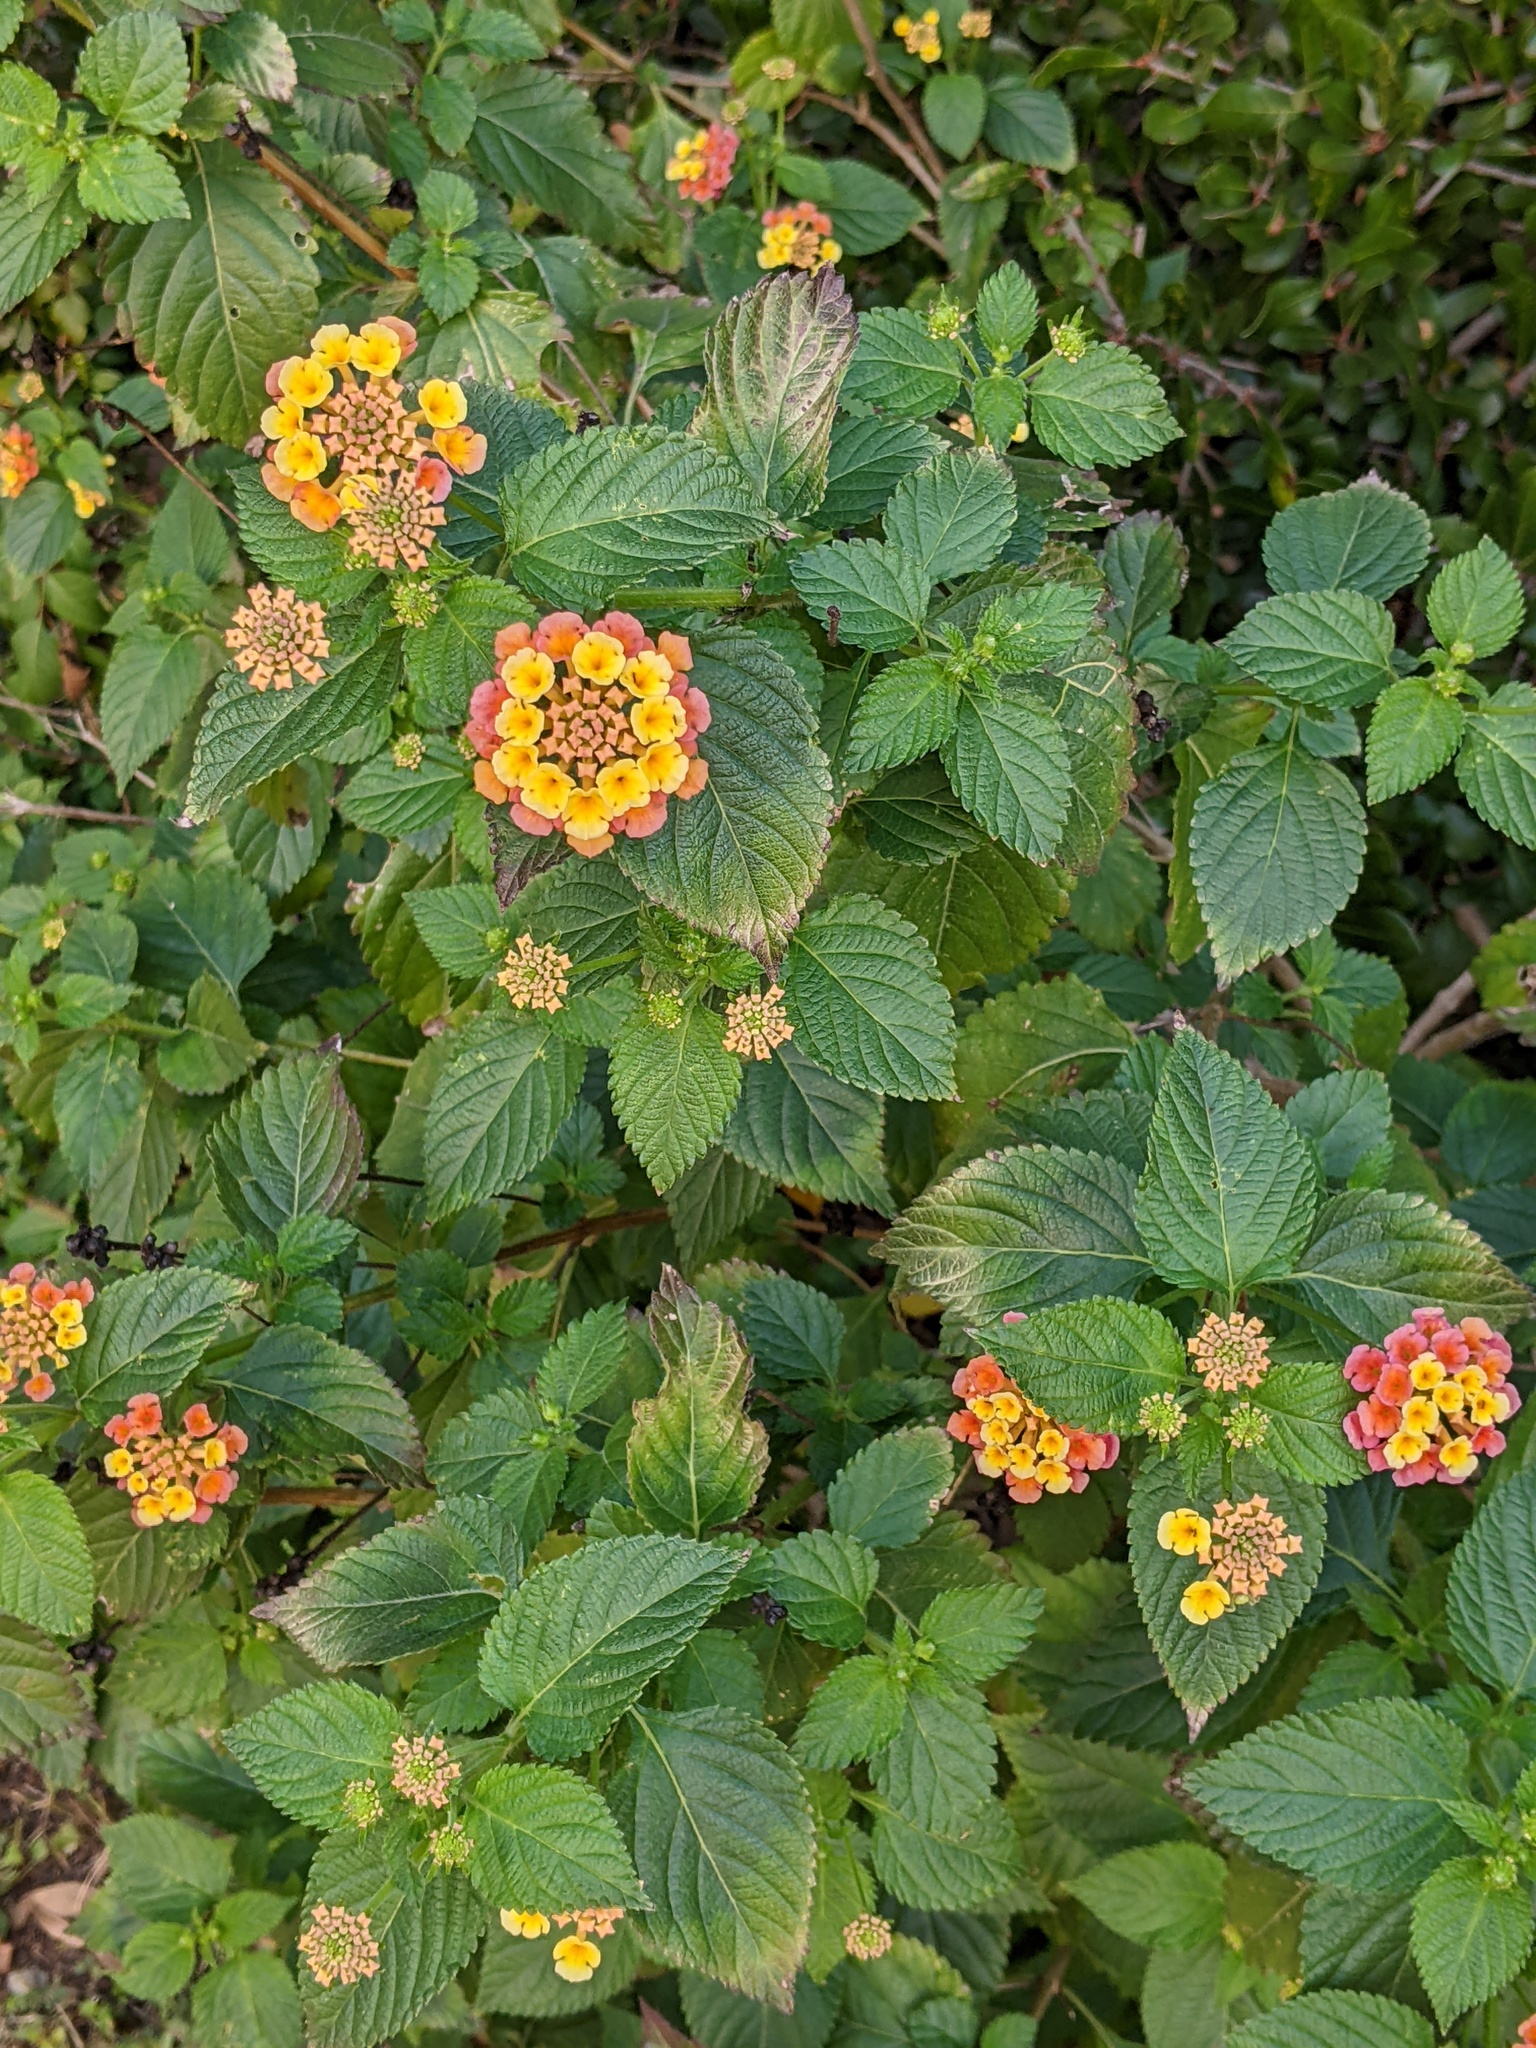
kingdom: Plantae
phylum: Tracheophyta
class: Magnoliopsida
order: Lamiales
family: Verbenaceae
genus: Lantana
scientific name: Lantana camara
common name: Lantana
